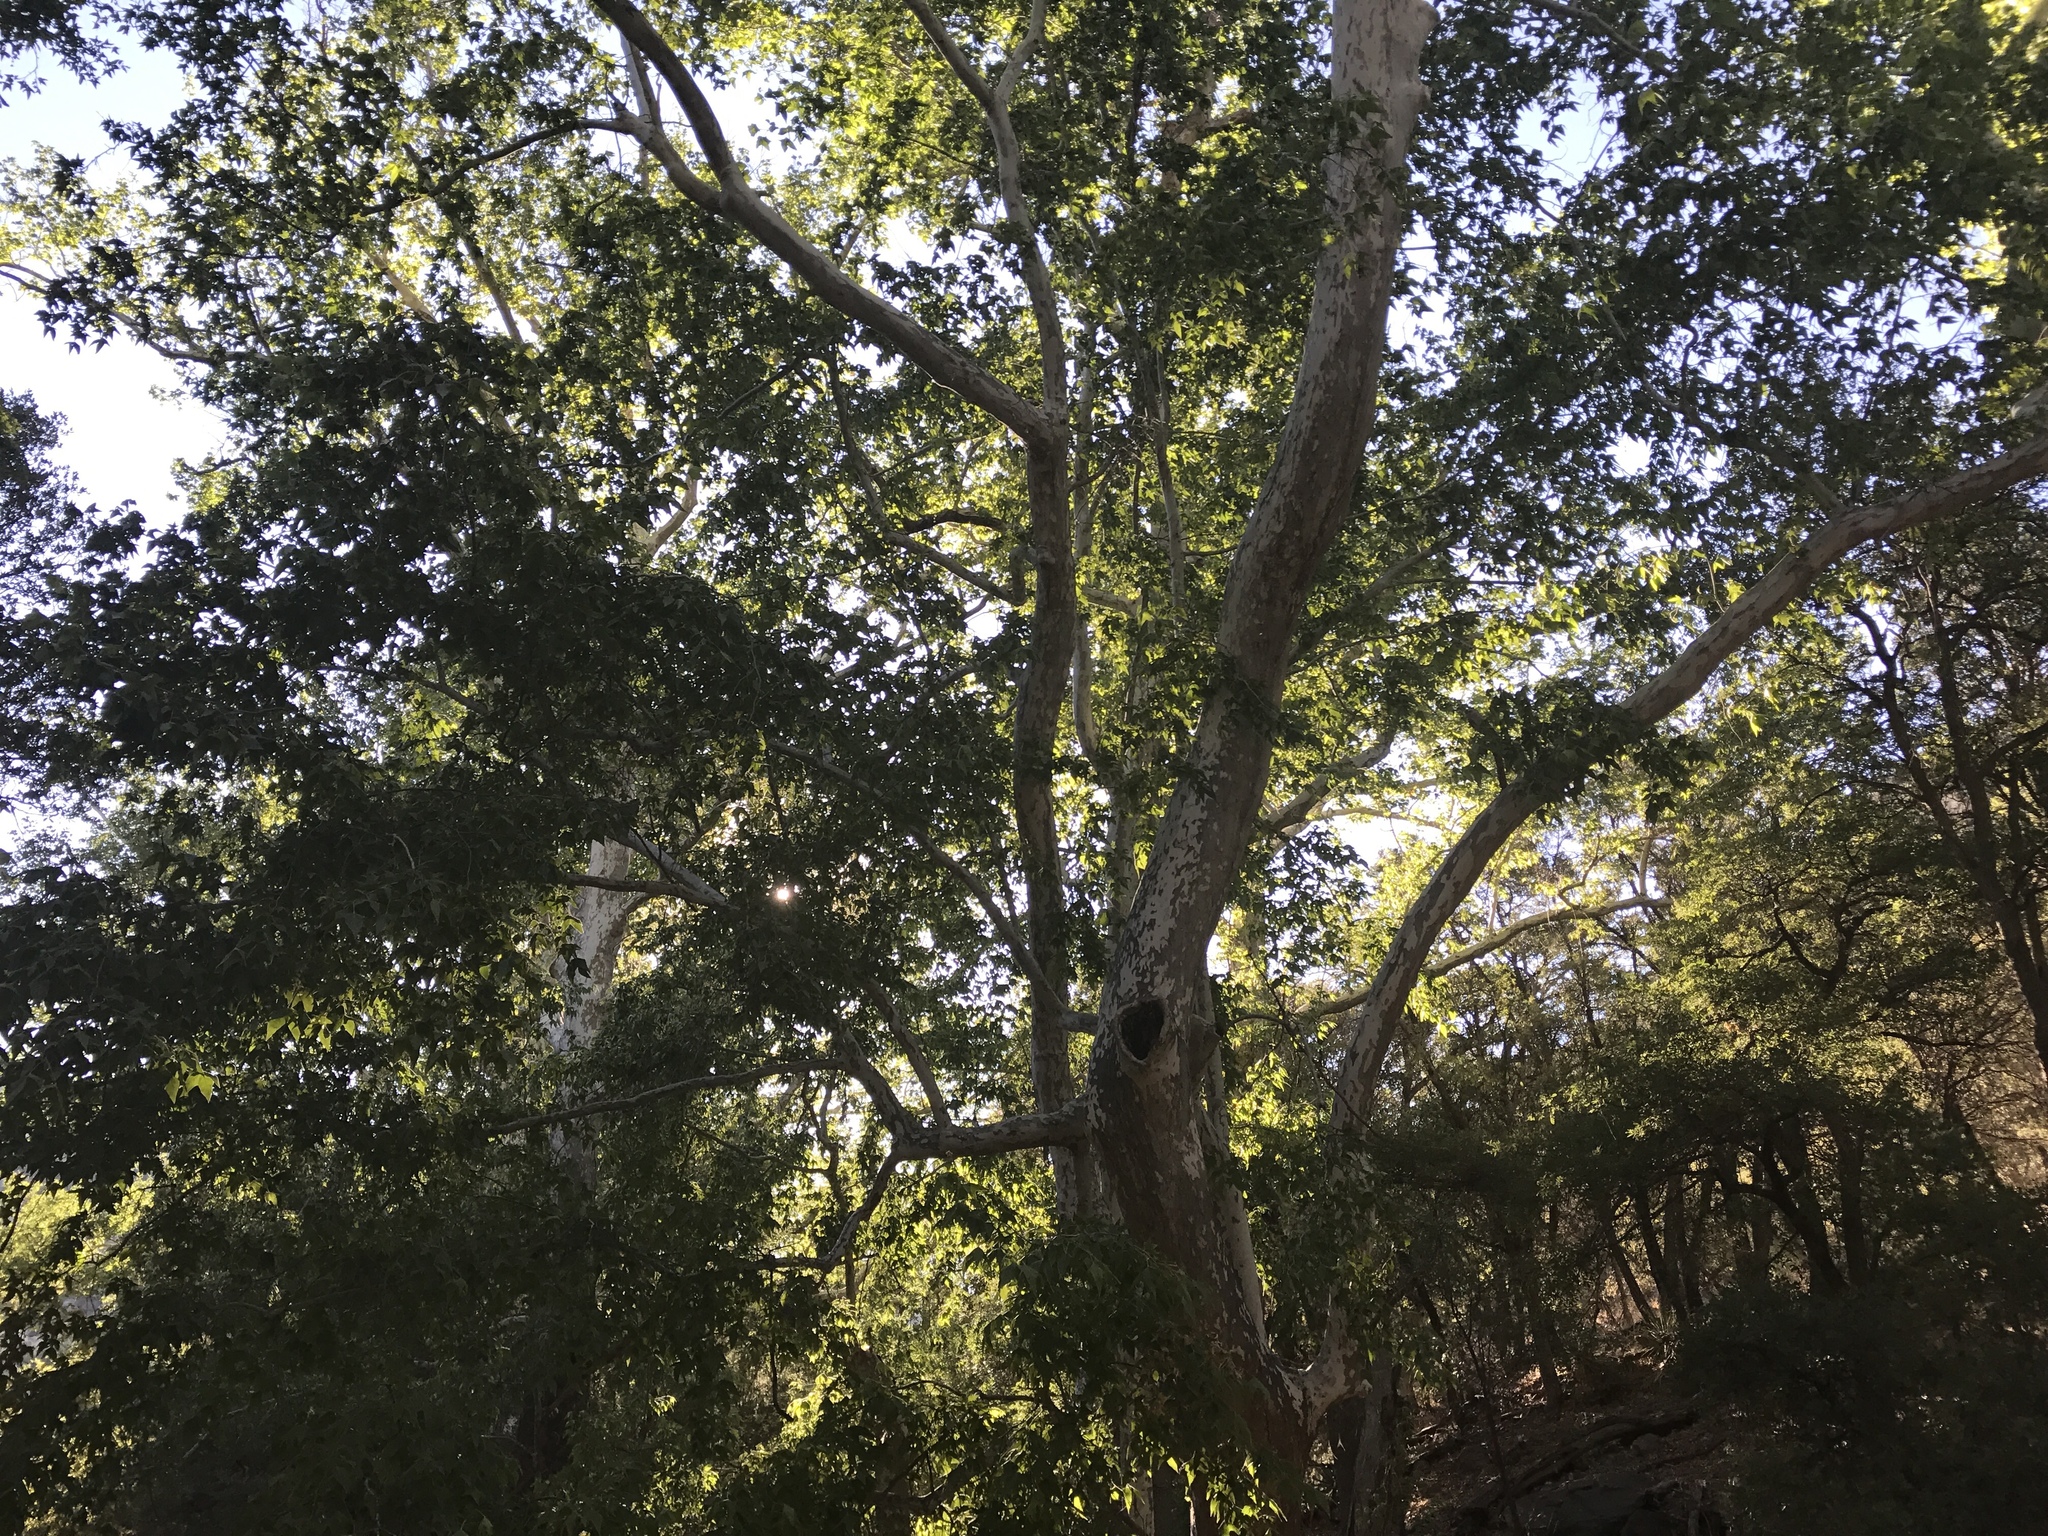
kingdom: Plantae
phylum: Tracheophyta
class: Magnoliopsida
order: Proteales
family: Platanaceae
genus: Platanus
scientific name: Platanus wrightii
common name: Arizona sycamore
